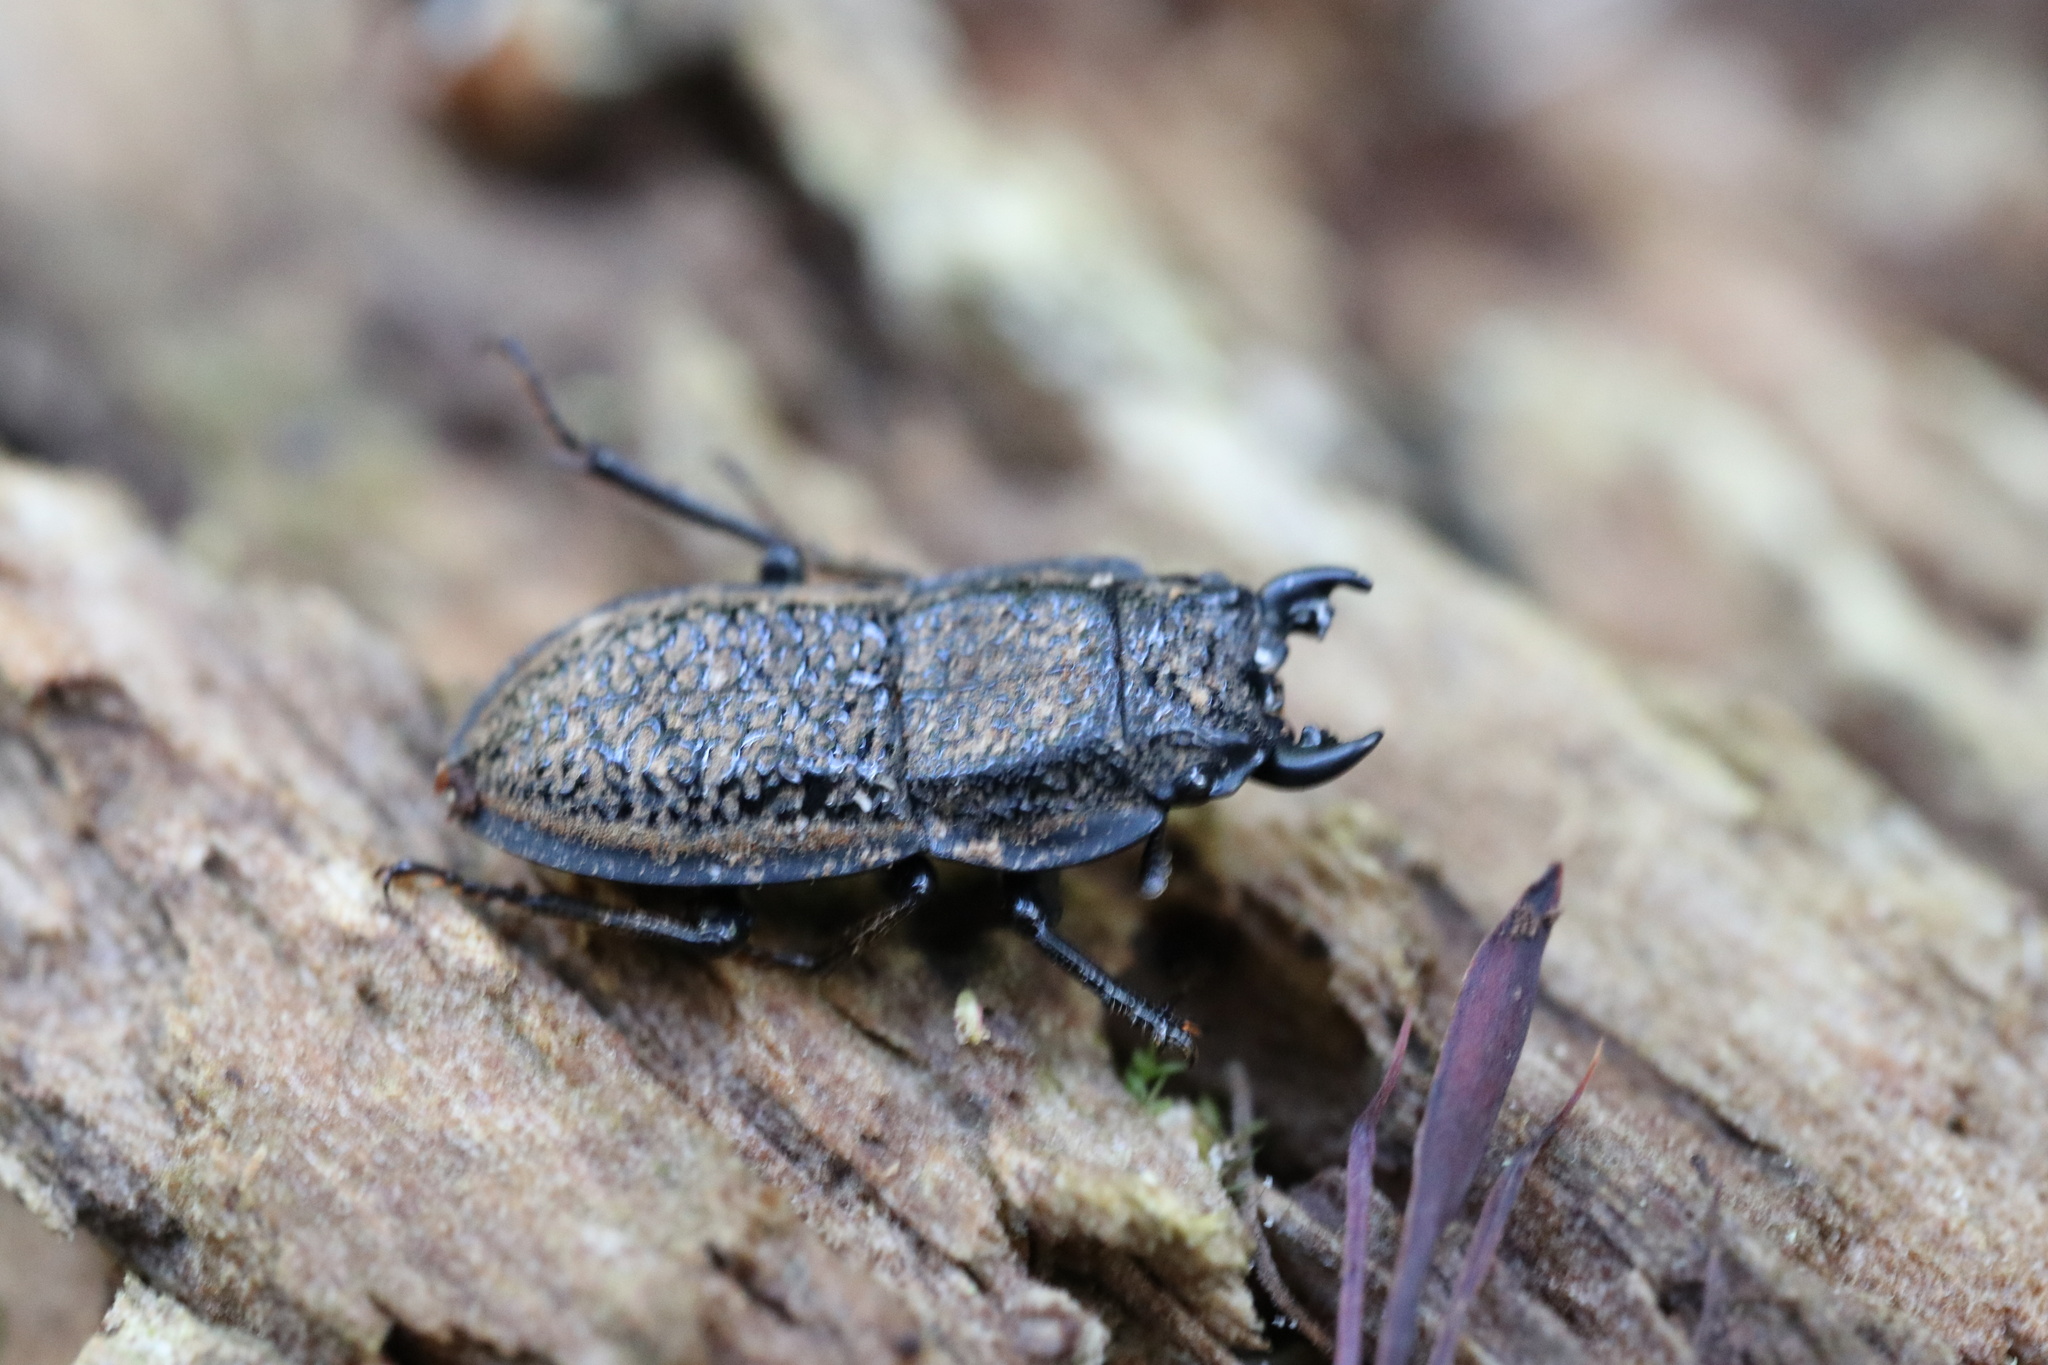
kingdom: Animalia
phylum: Arthropoda
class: Insecta
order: Coleoptera
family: Lucanidae
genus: Erichius
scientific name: Erichius caelatus
